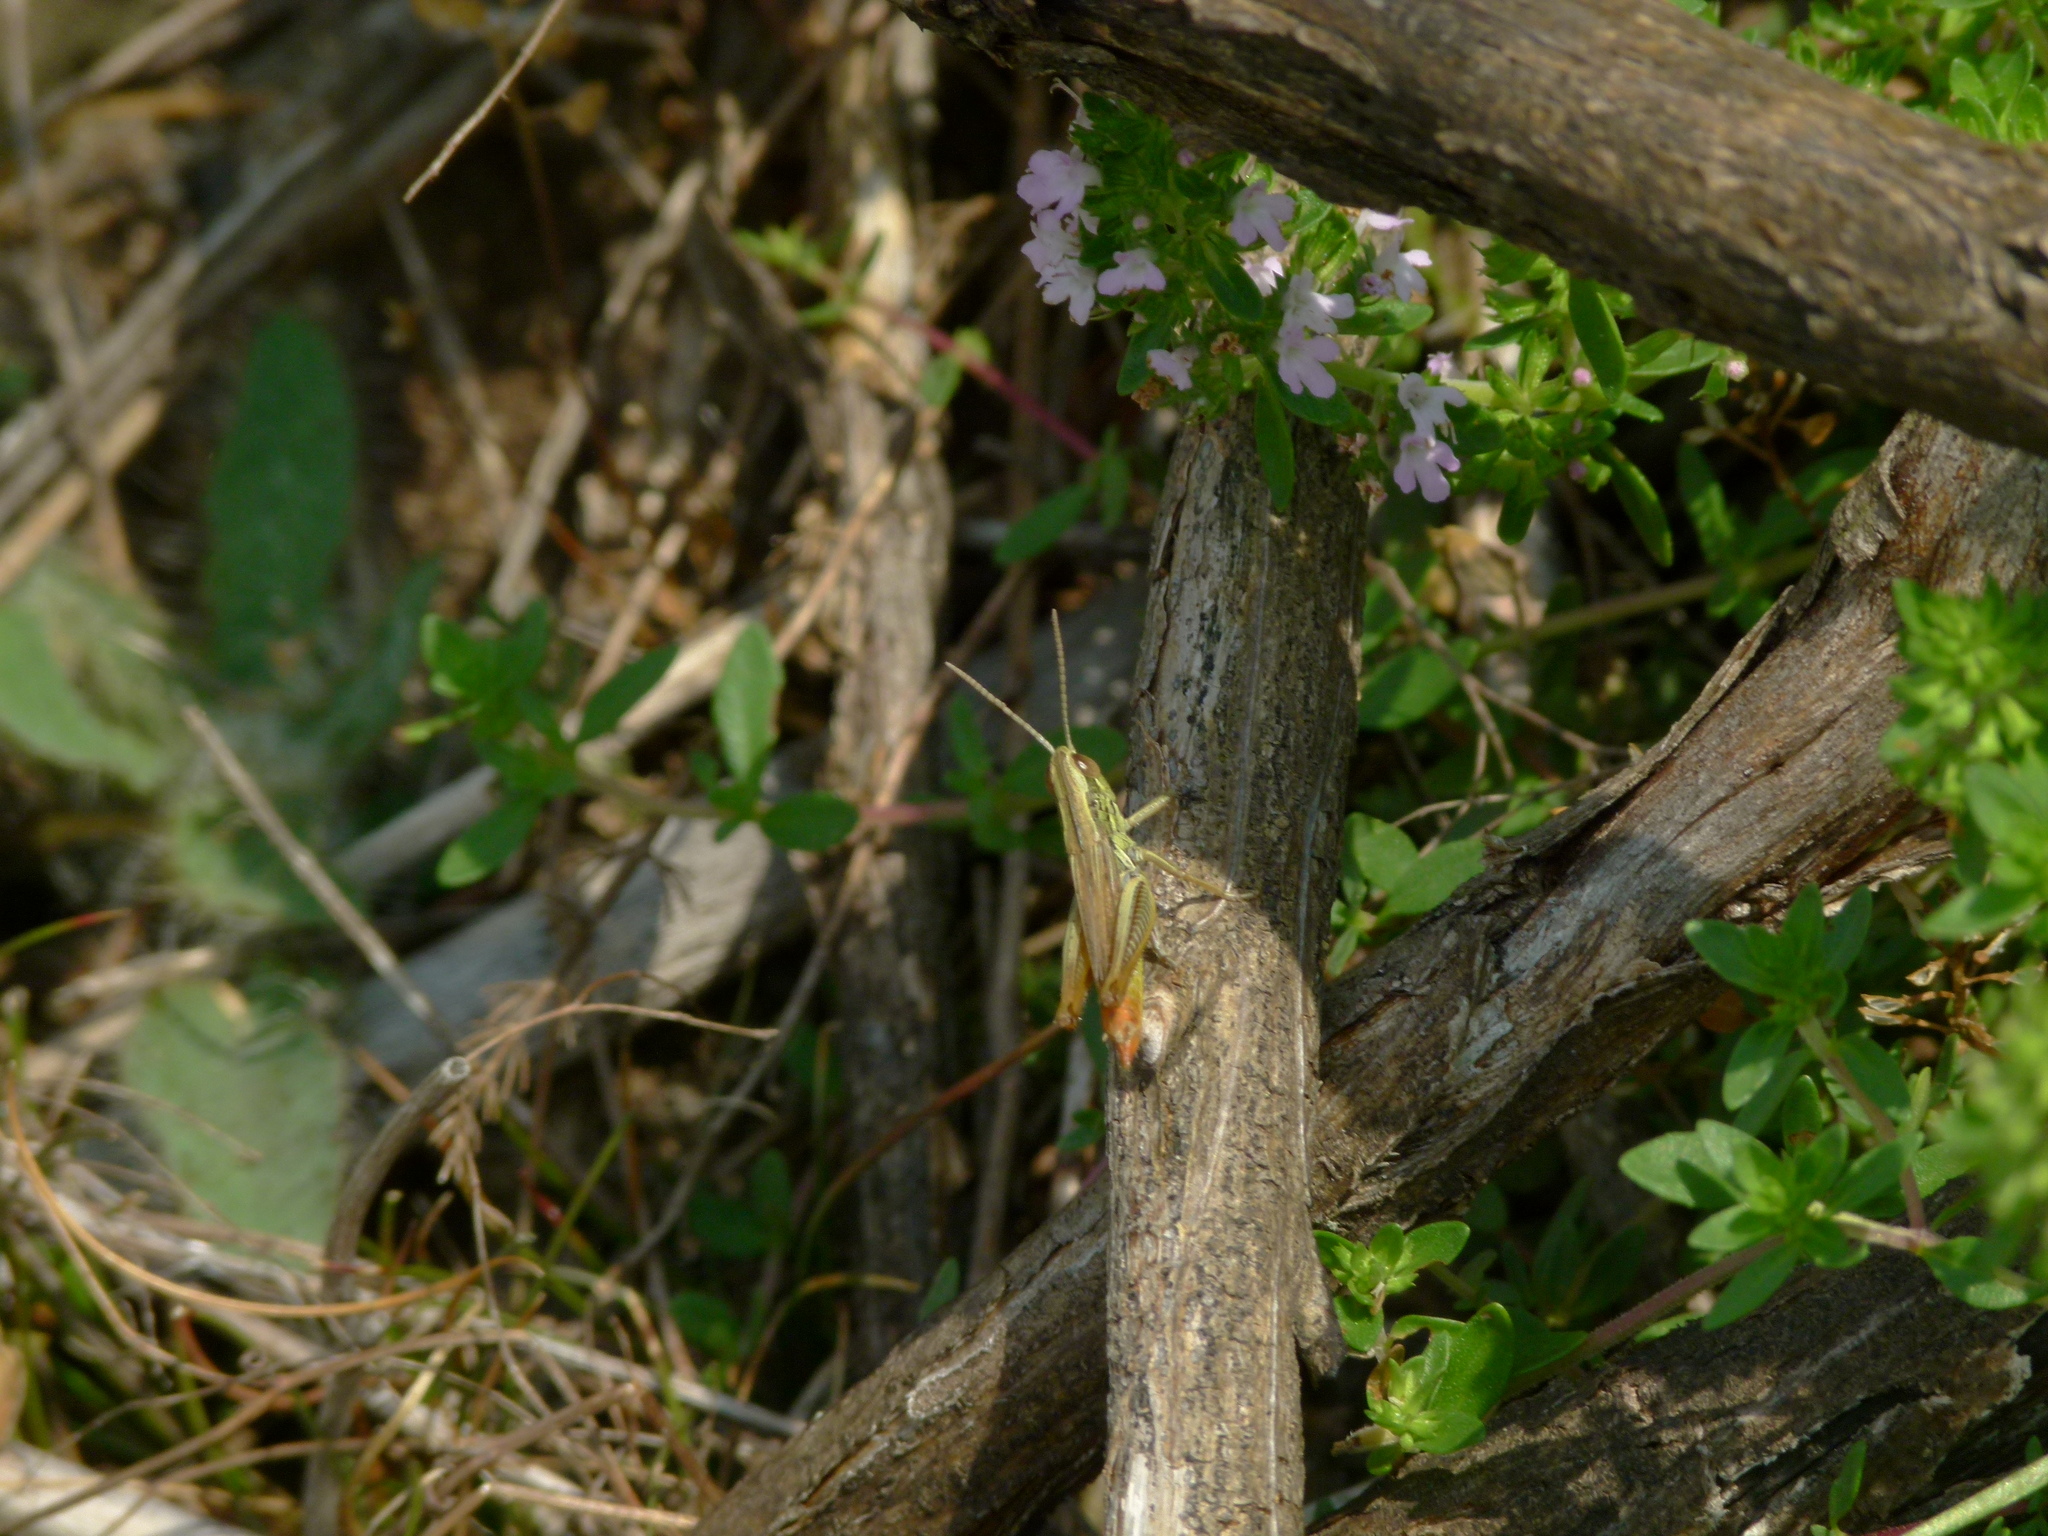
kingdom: Animalia
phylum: Arthropoda
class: Insecta
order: Orthoptera
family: Acrididae
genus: Euchorthippus
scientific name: Euchorthippus declivus
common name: Common straw grasshopper
